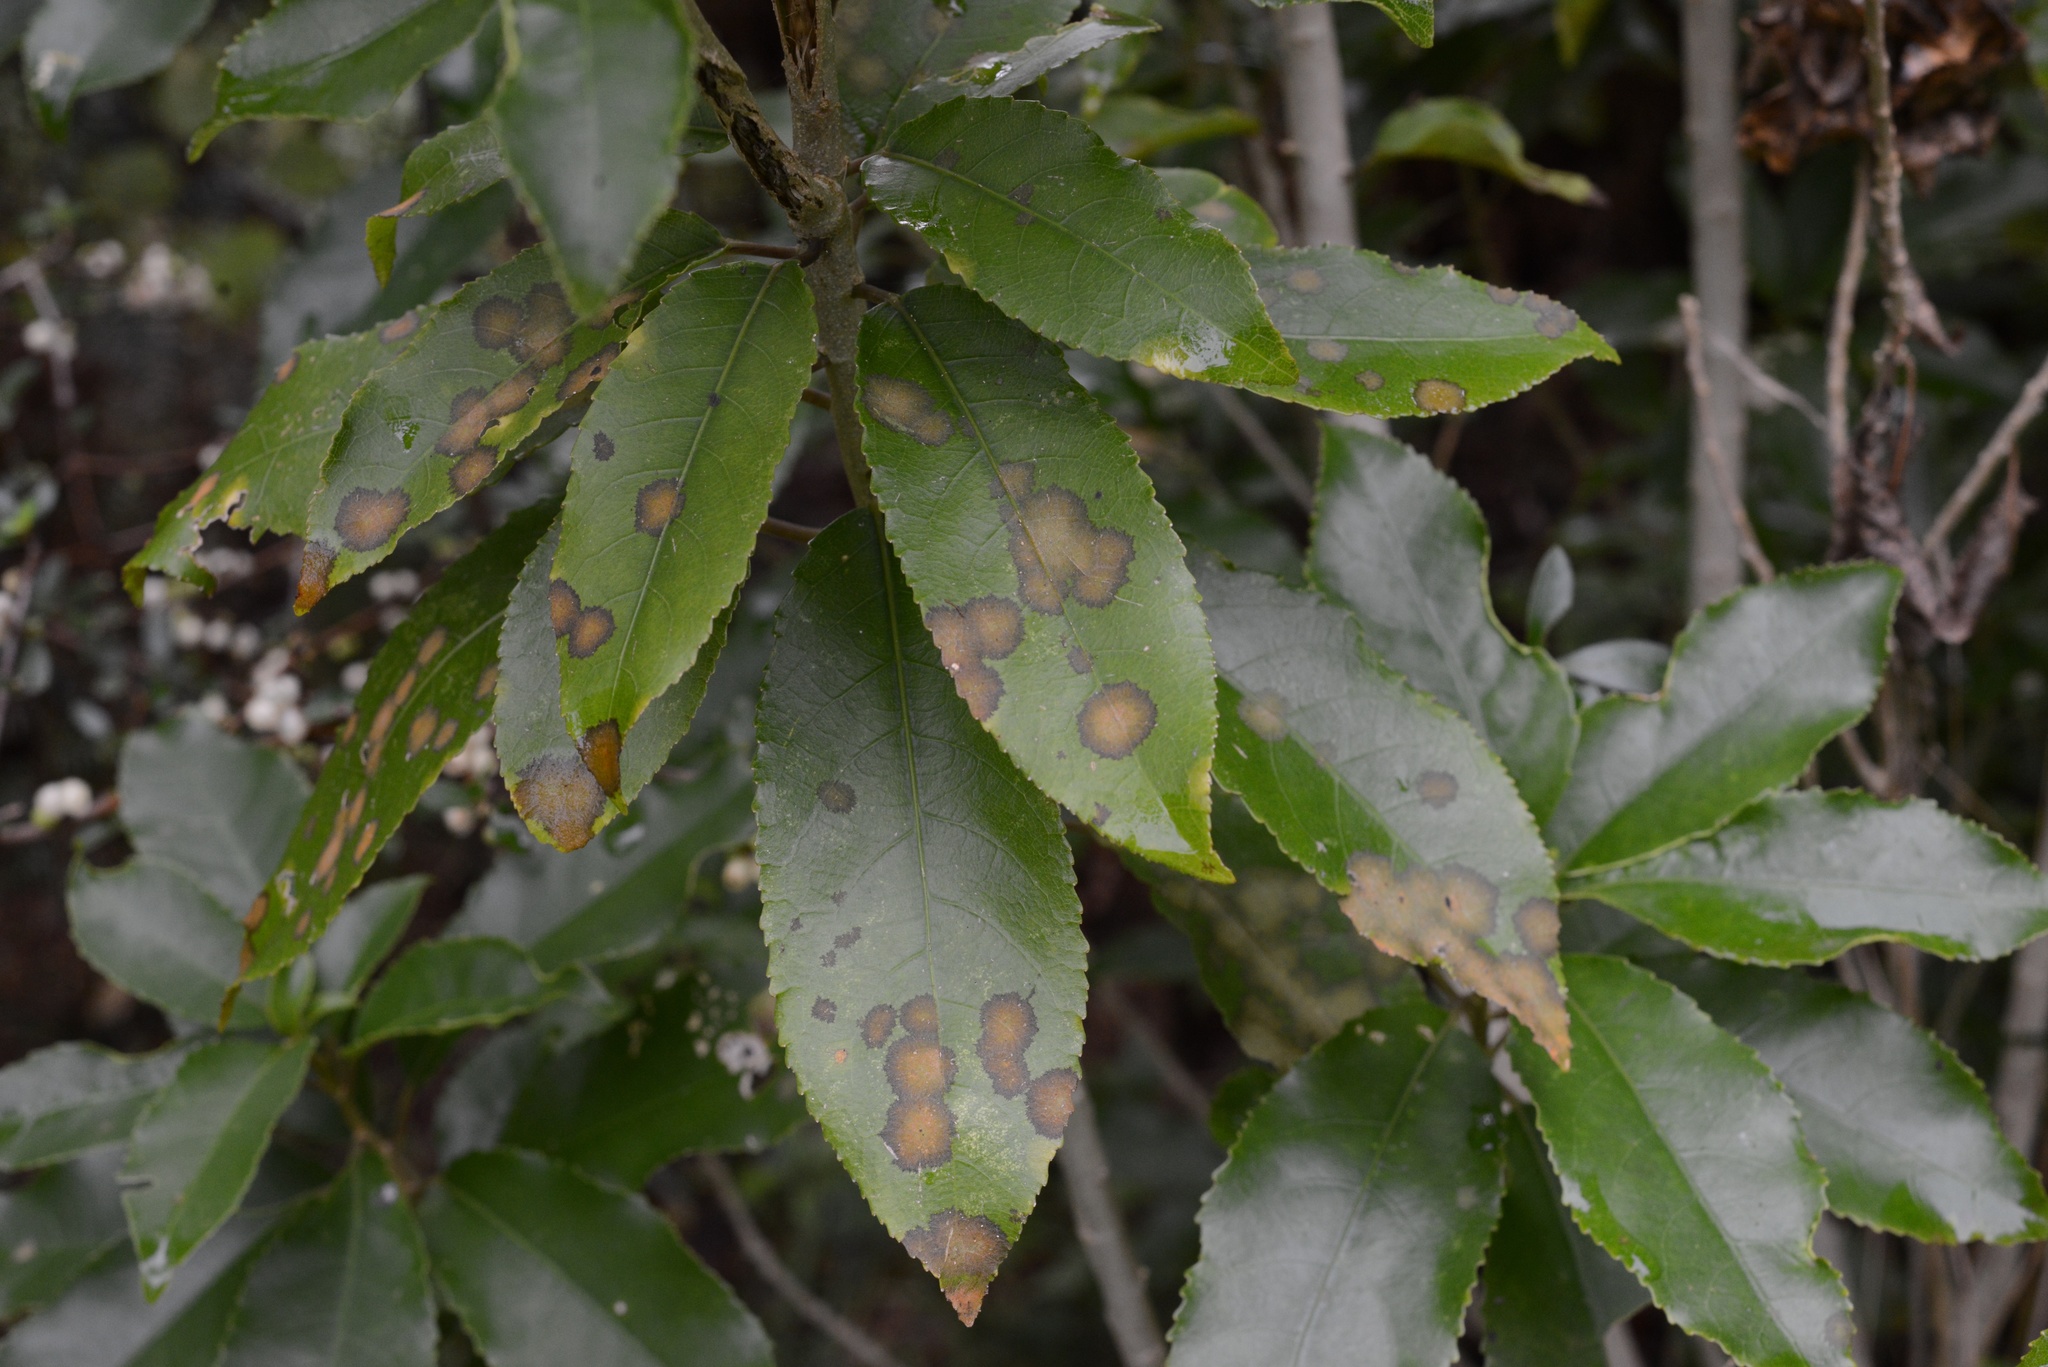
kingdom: Plantae
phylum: Chlorophyta
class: Ulvophyceae
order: Trentepohliales
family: Trentepohliaceae
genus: Cephaleuros
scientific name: Cephaleuros
